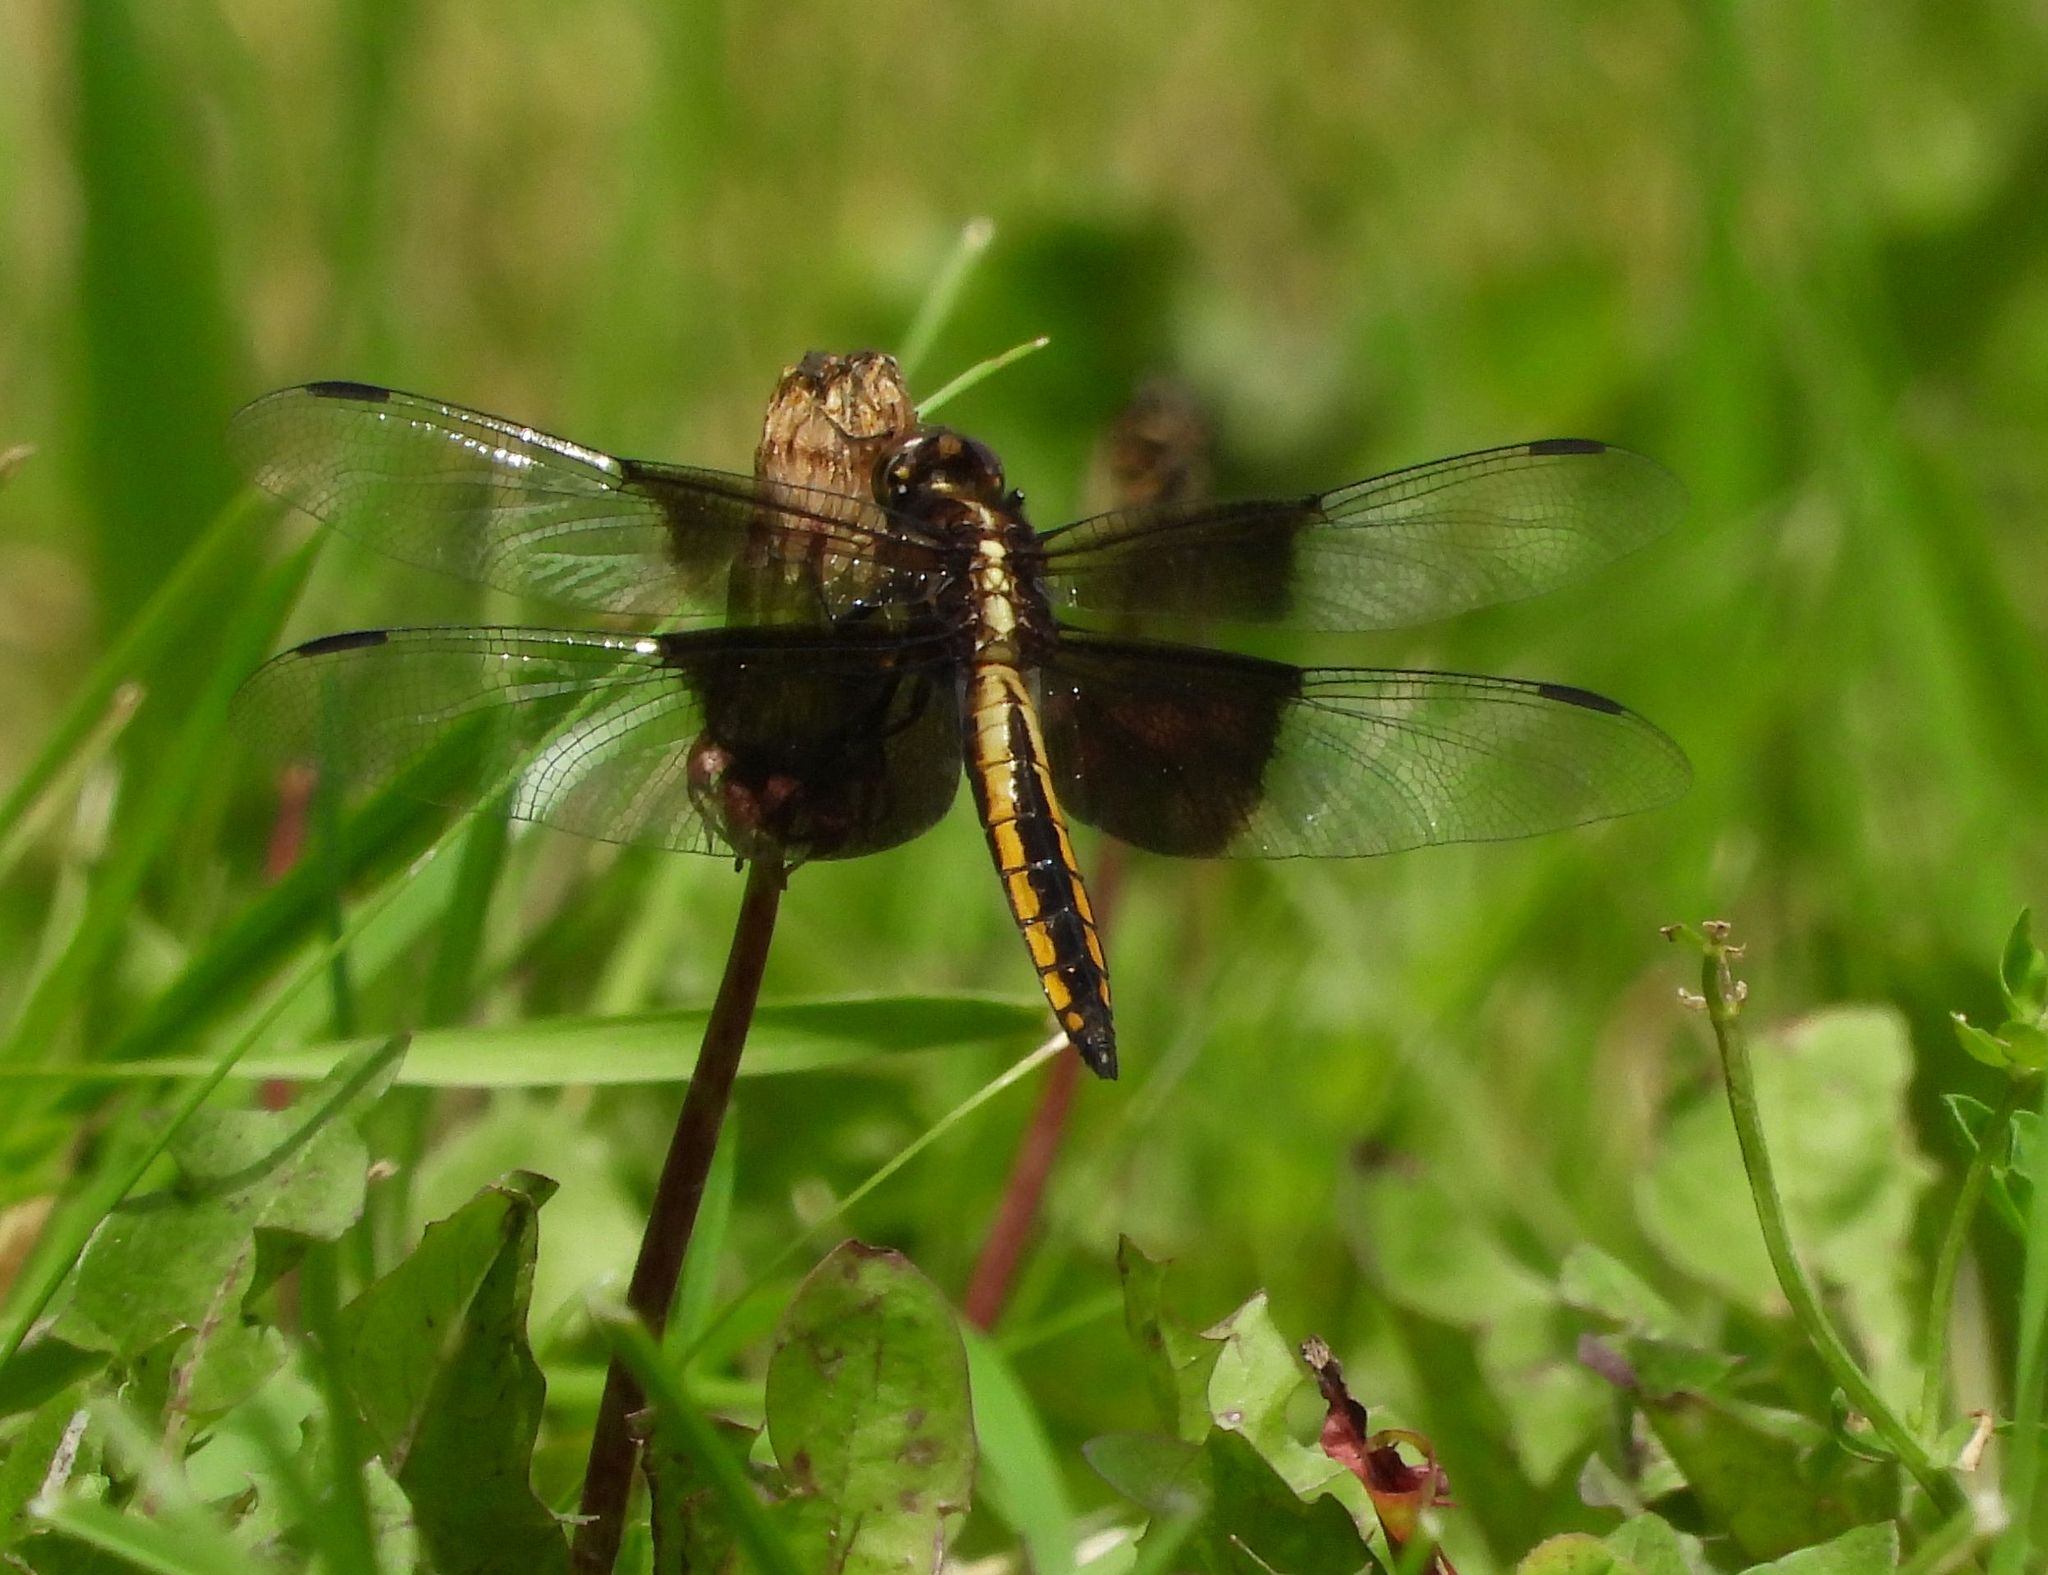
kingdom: Animalia
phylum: Arthropoda
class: Insecta
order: Odonata
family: Libellulidae
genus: Libellula
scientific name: Libellula luctuosa
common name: Widow skimmer
